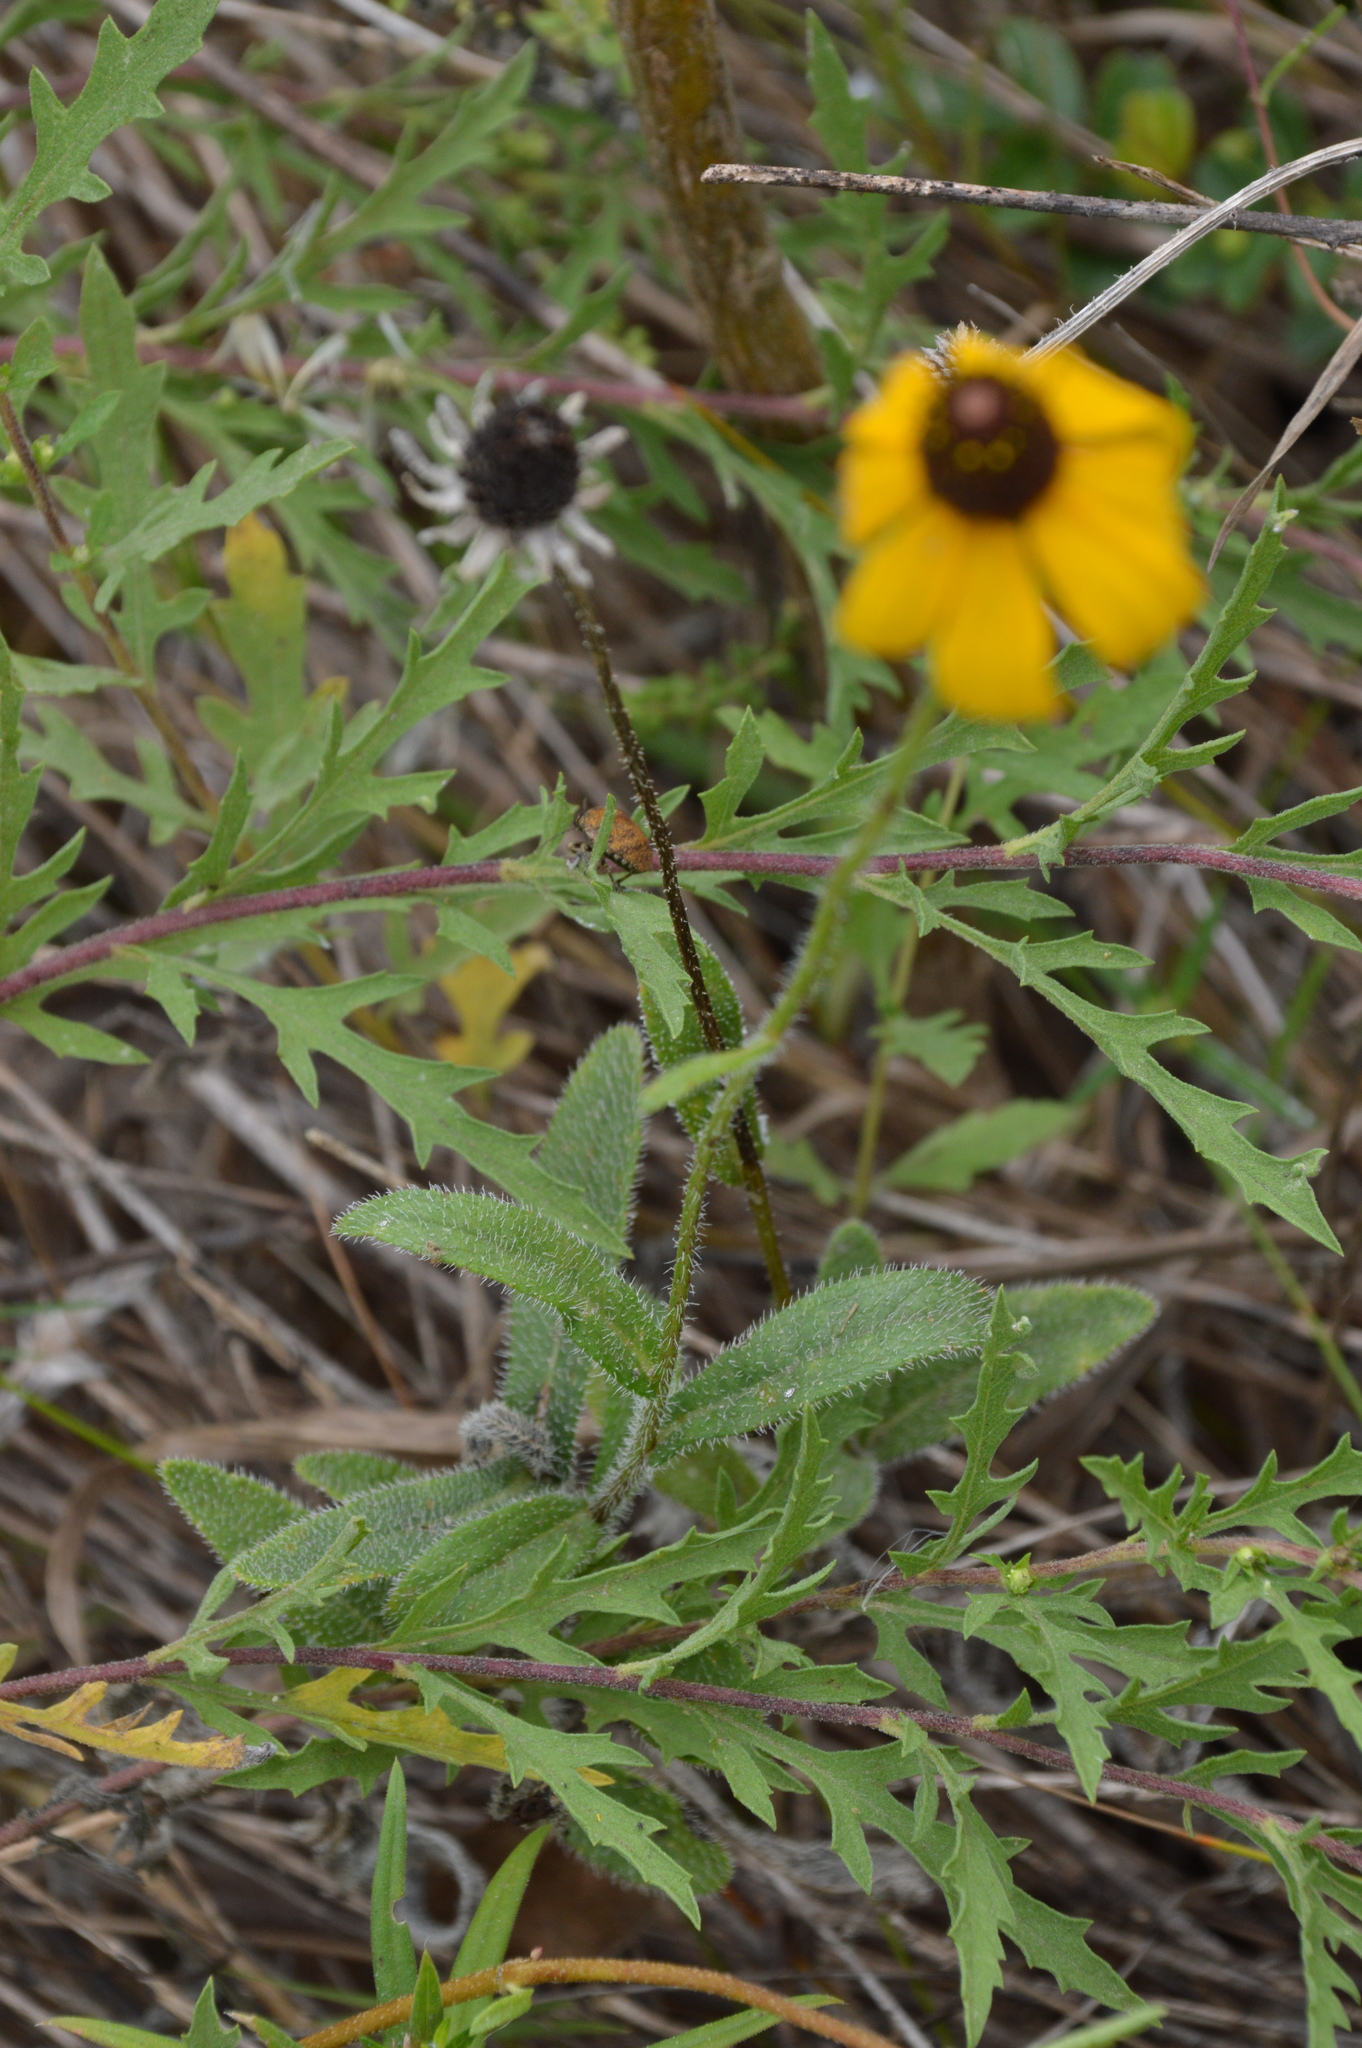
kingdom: Plantae
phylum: Tracheophyta
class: Magnoliopsida
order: Asterales
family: Asteraceae
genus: Rudbeckia
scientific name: Rudbeckia hirta
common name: Black-eyed-susan
